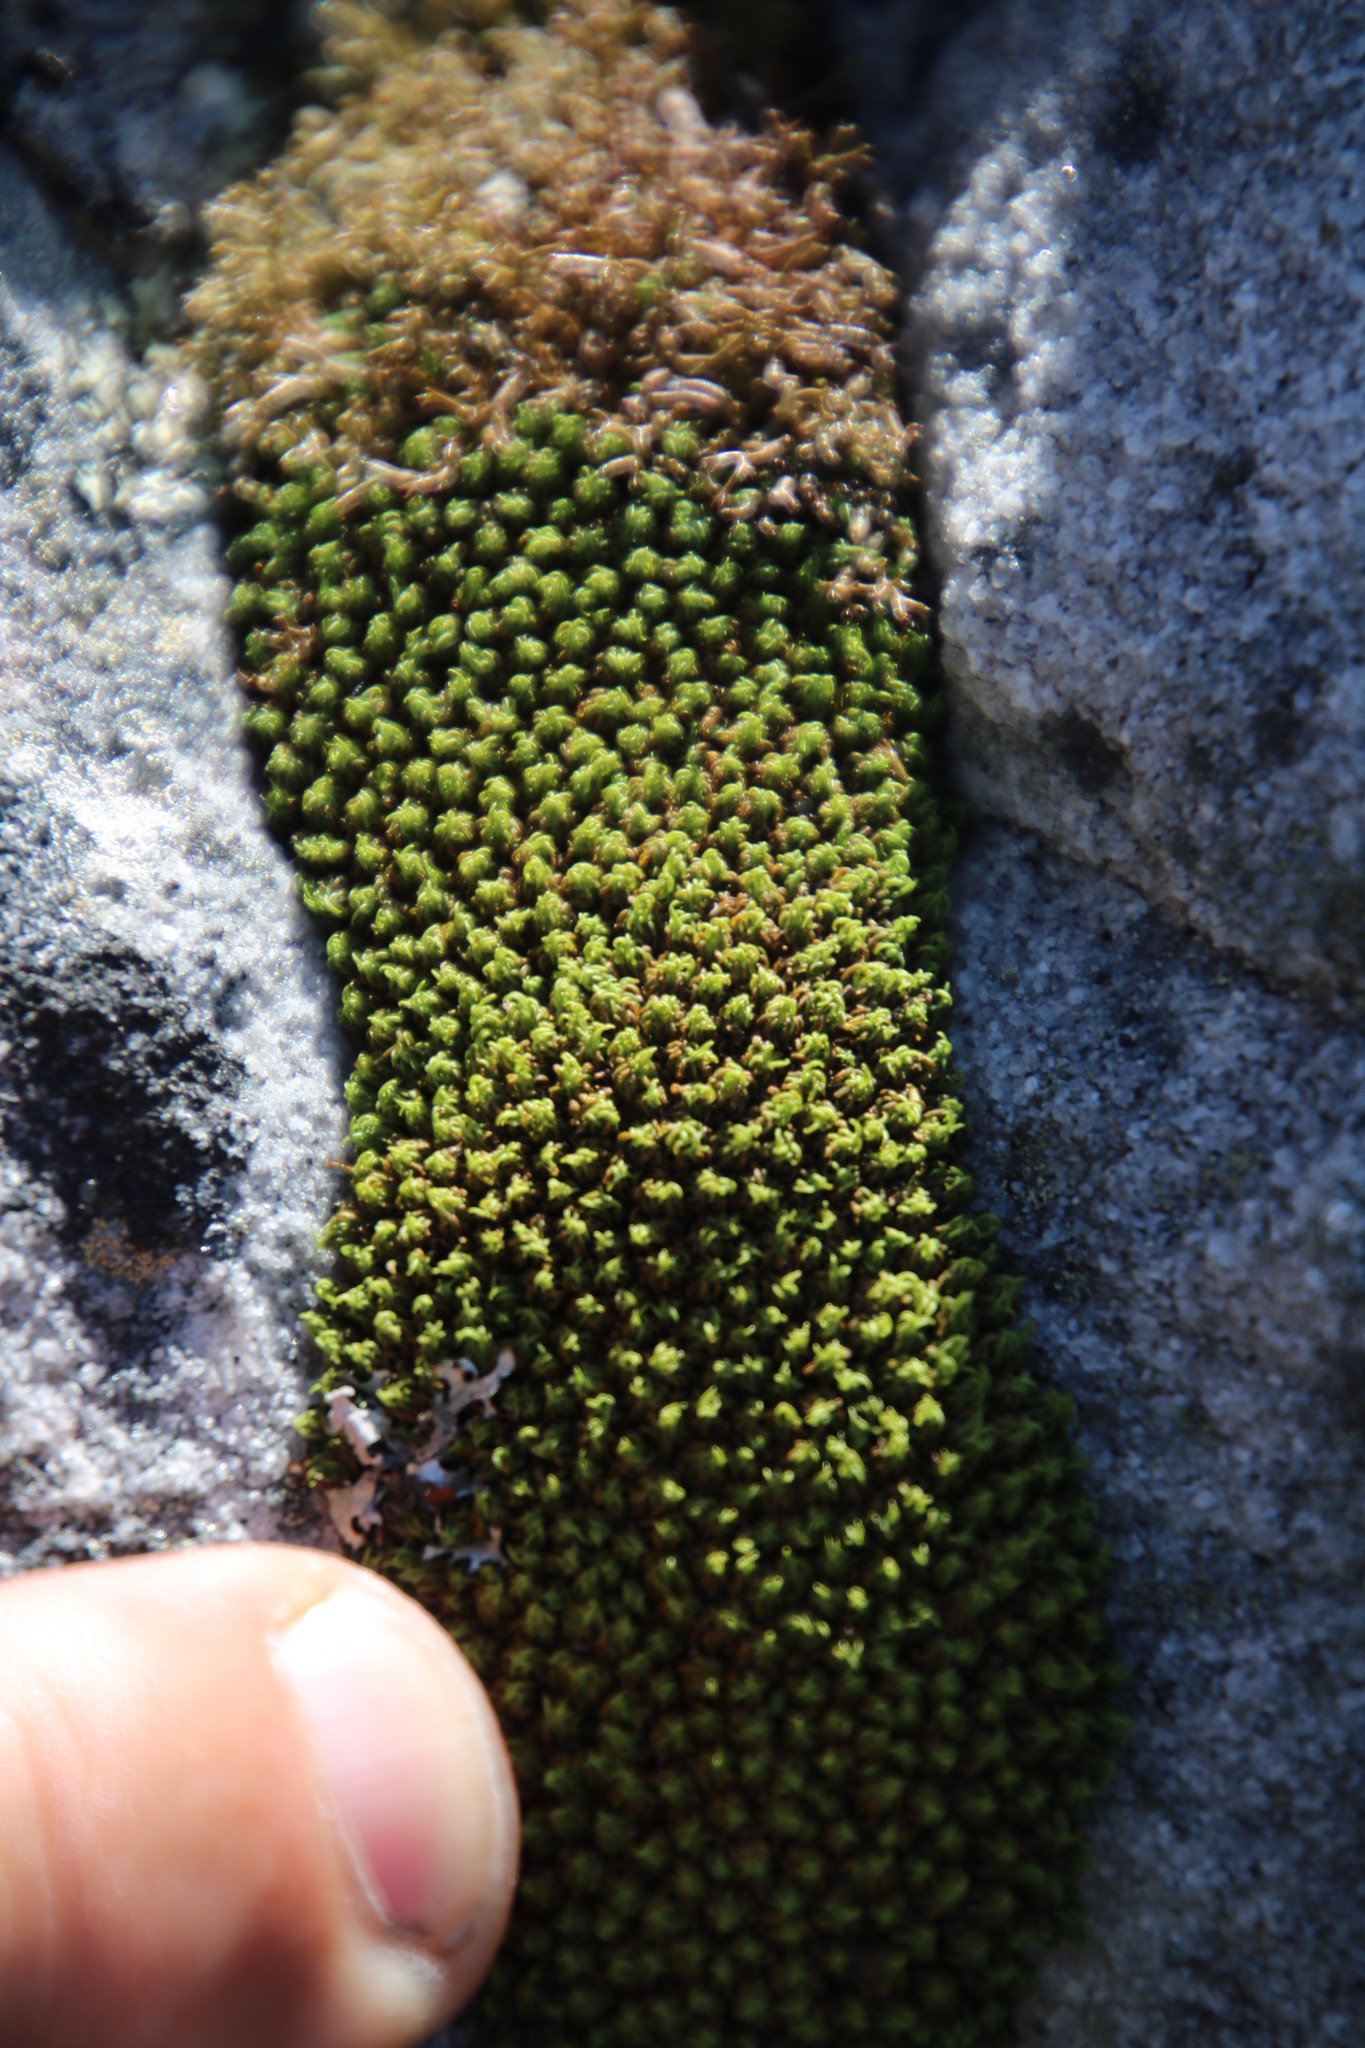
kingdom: Plantae
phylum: Bryophyta
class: Bryopsida
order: Dicranales
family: Hypodontiaceae
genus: Hypodontium
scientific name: Hypodontium pomiforme
